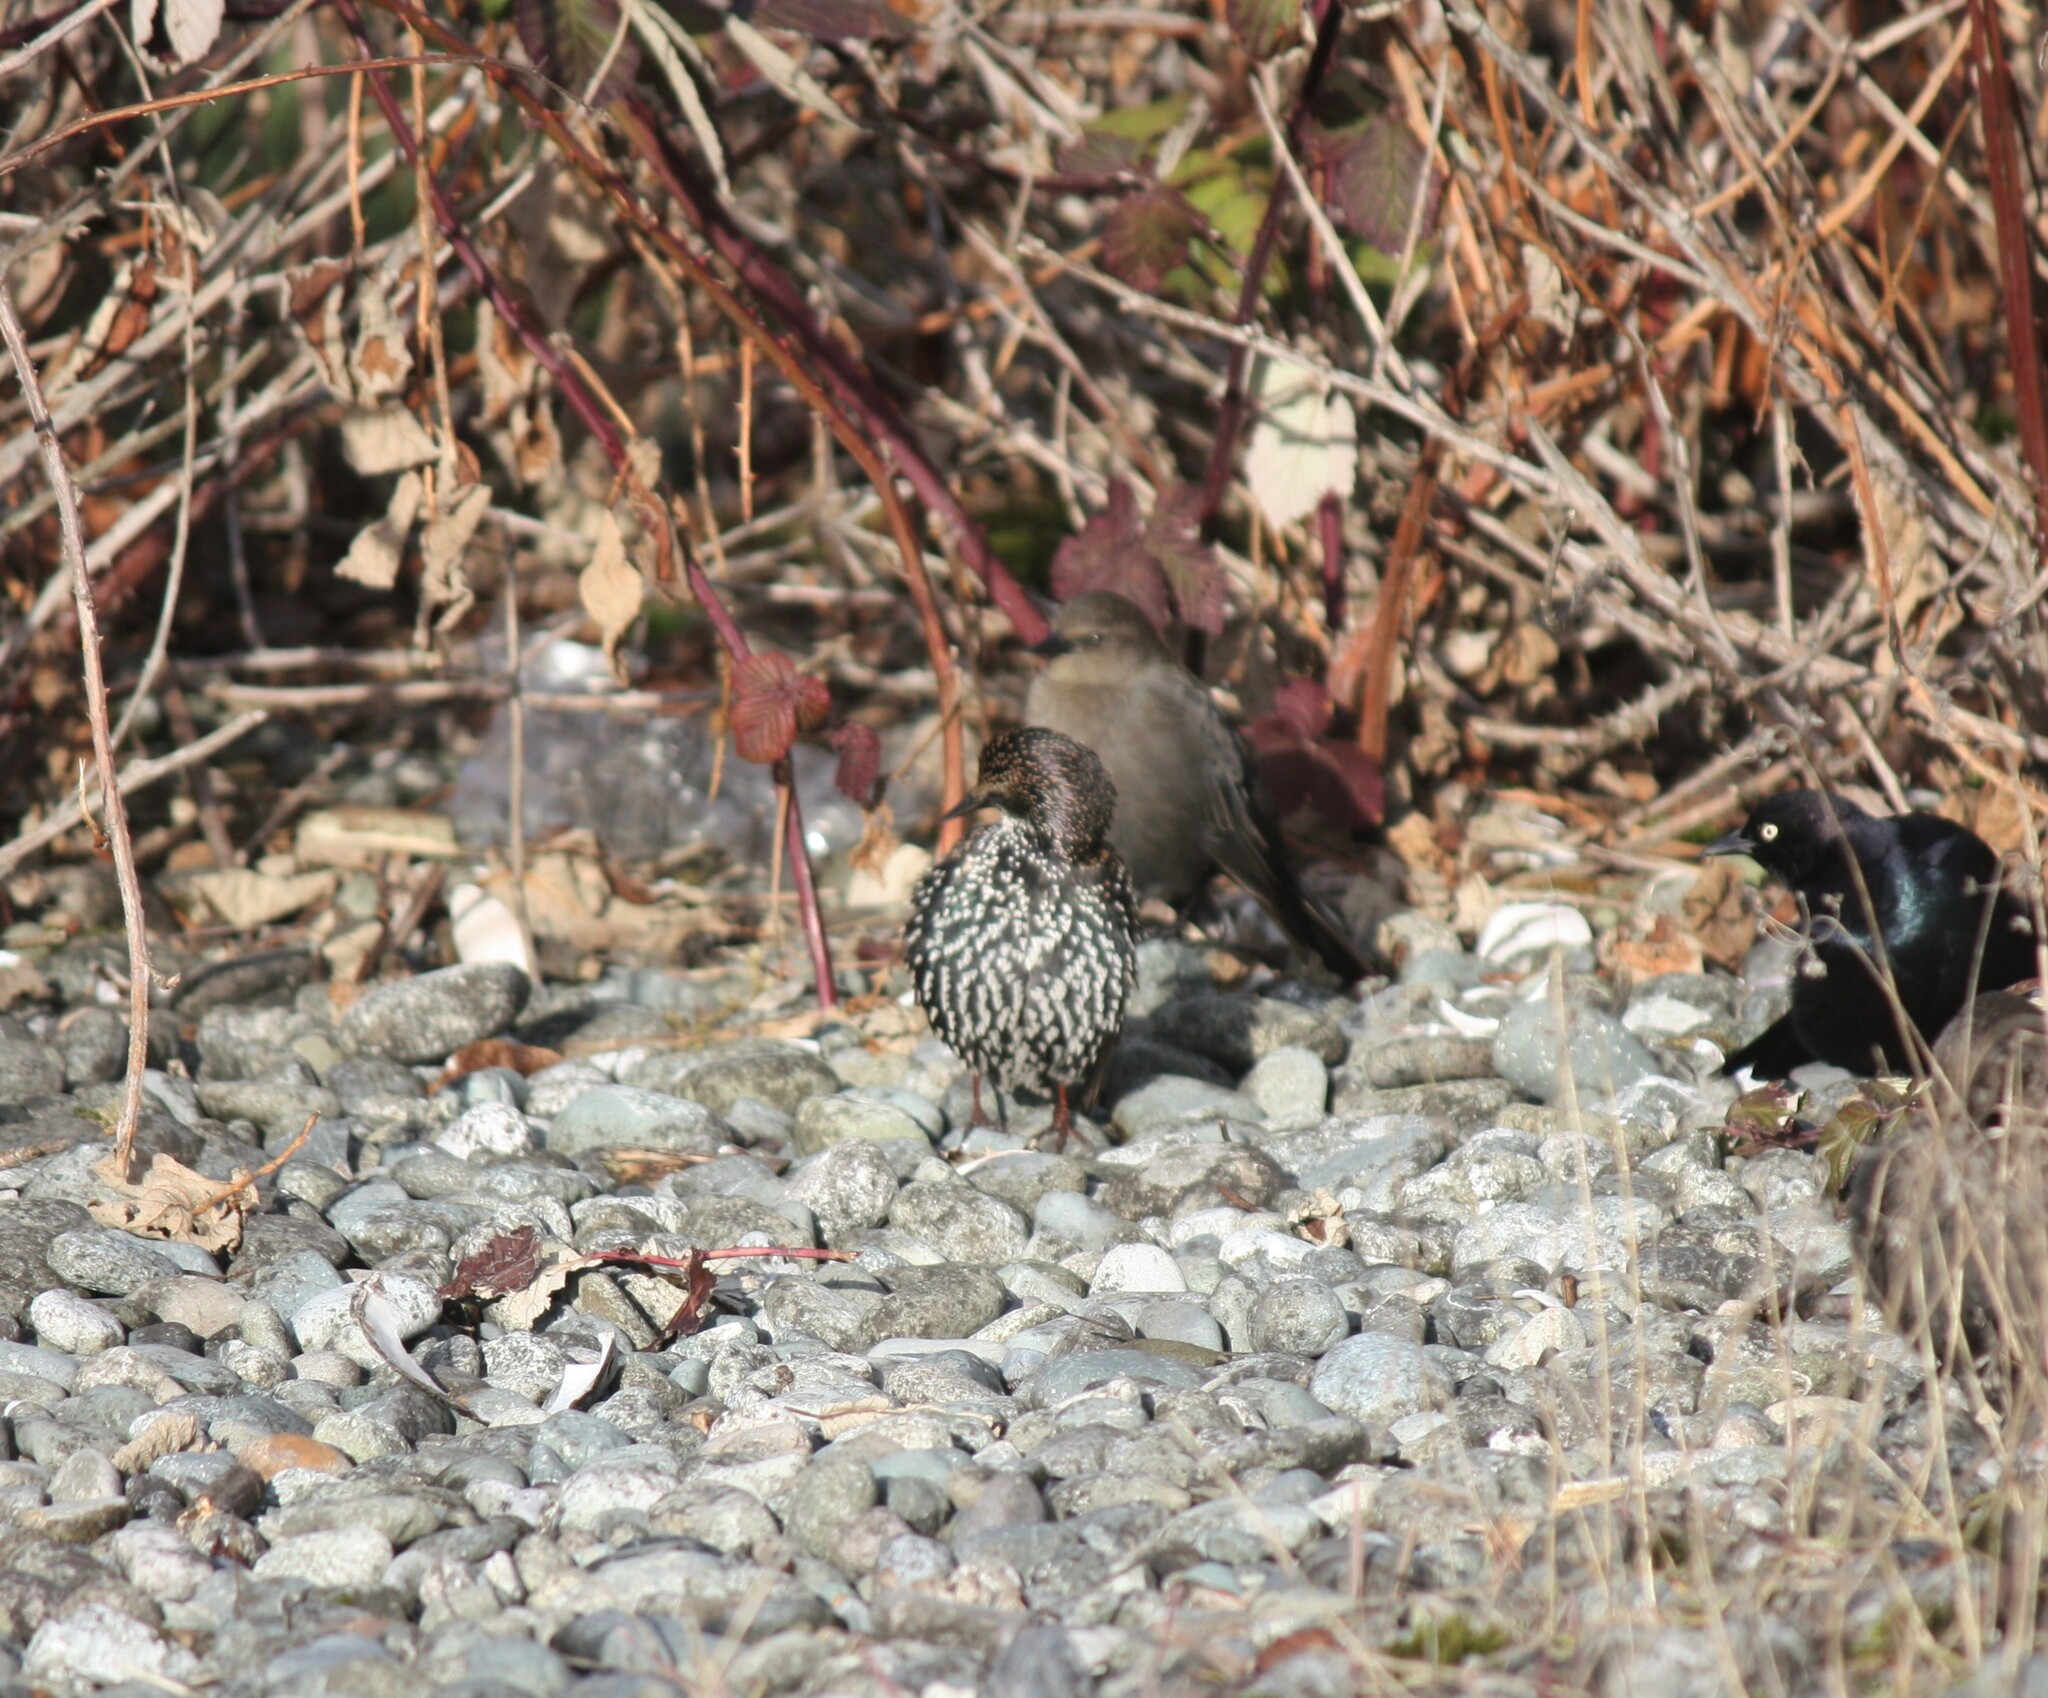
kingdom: Animalia
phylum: Chordata
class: Aves
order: Passeriformes
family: Sturnidae
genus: Sturnus
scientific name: Sturnus vulgaris
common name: Common starling
